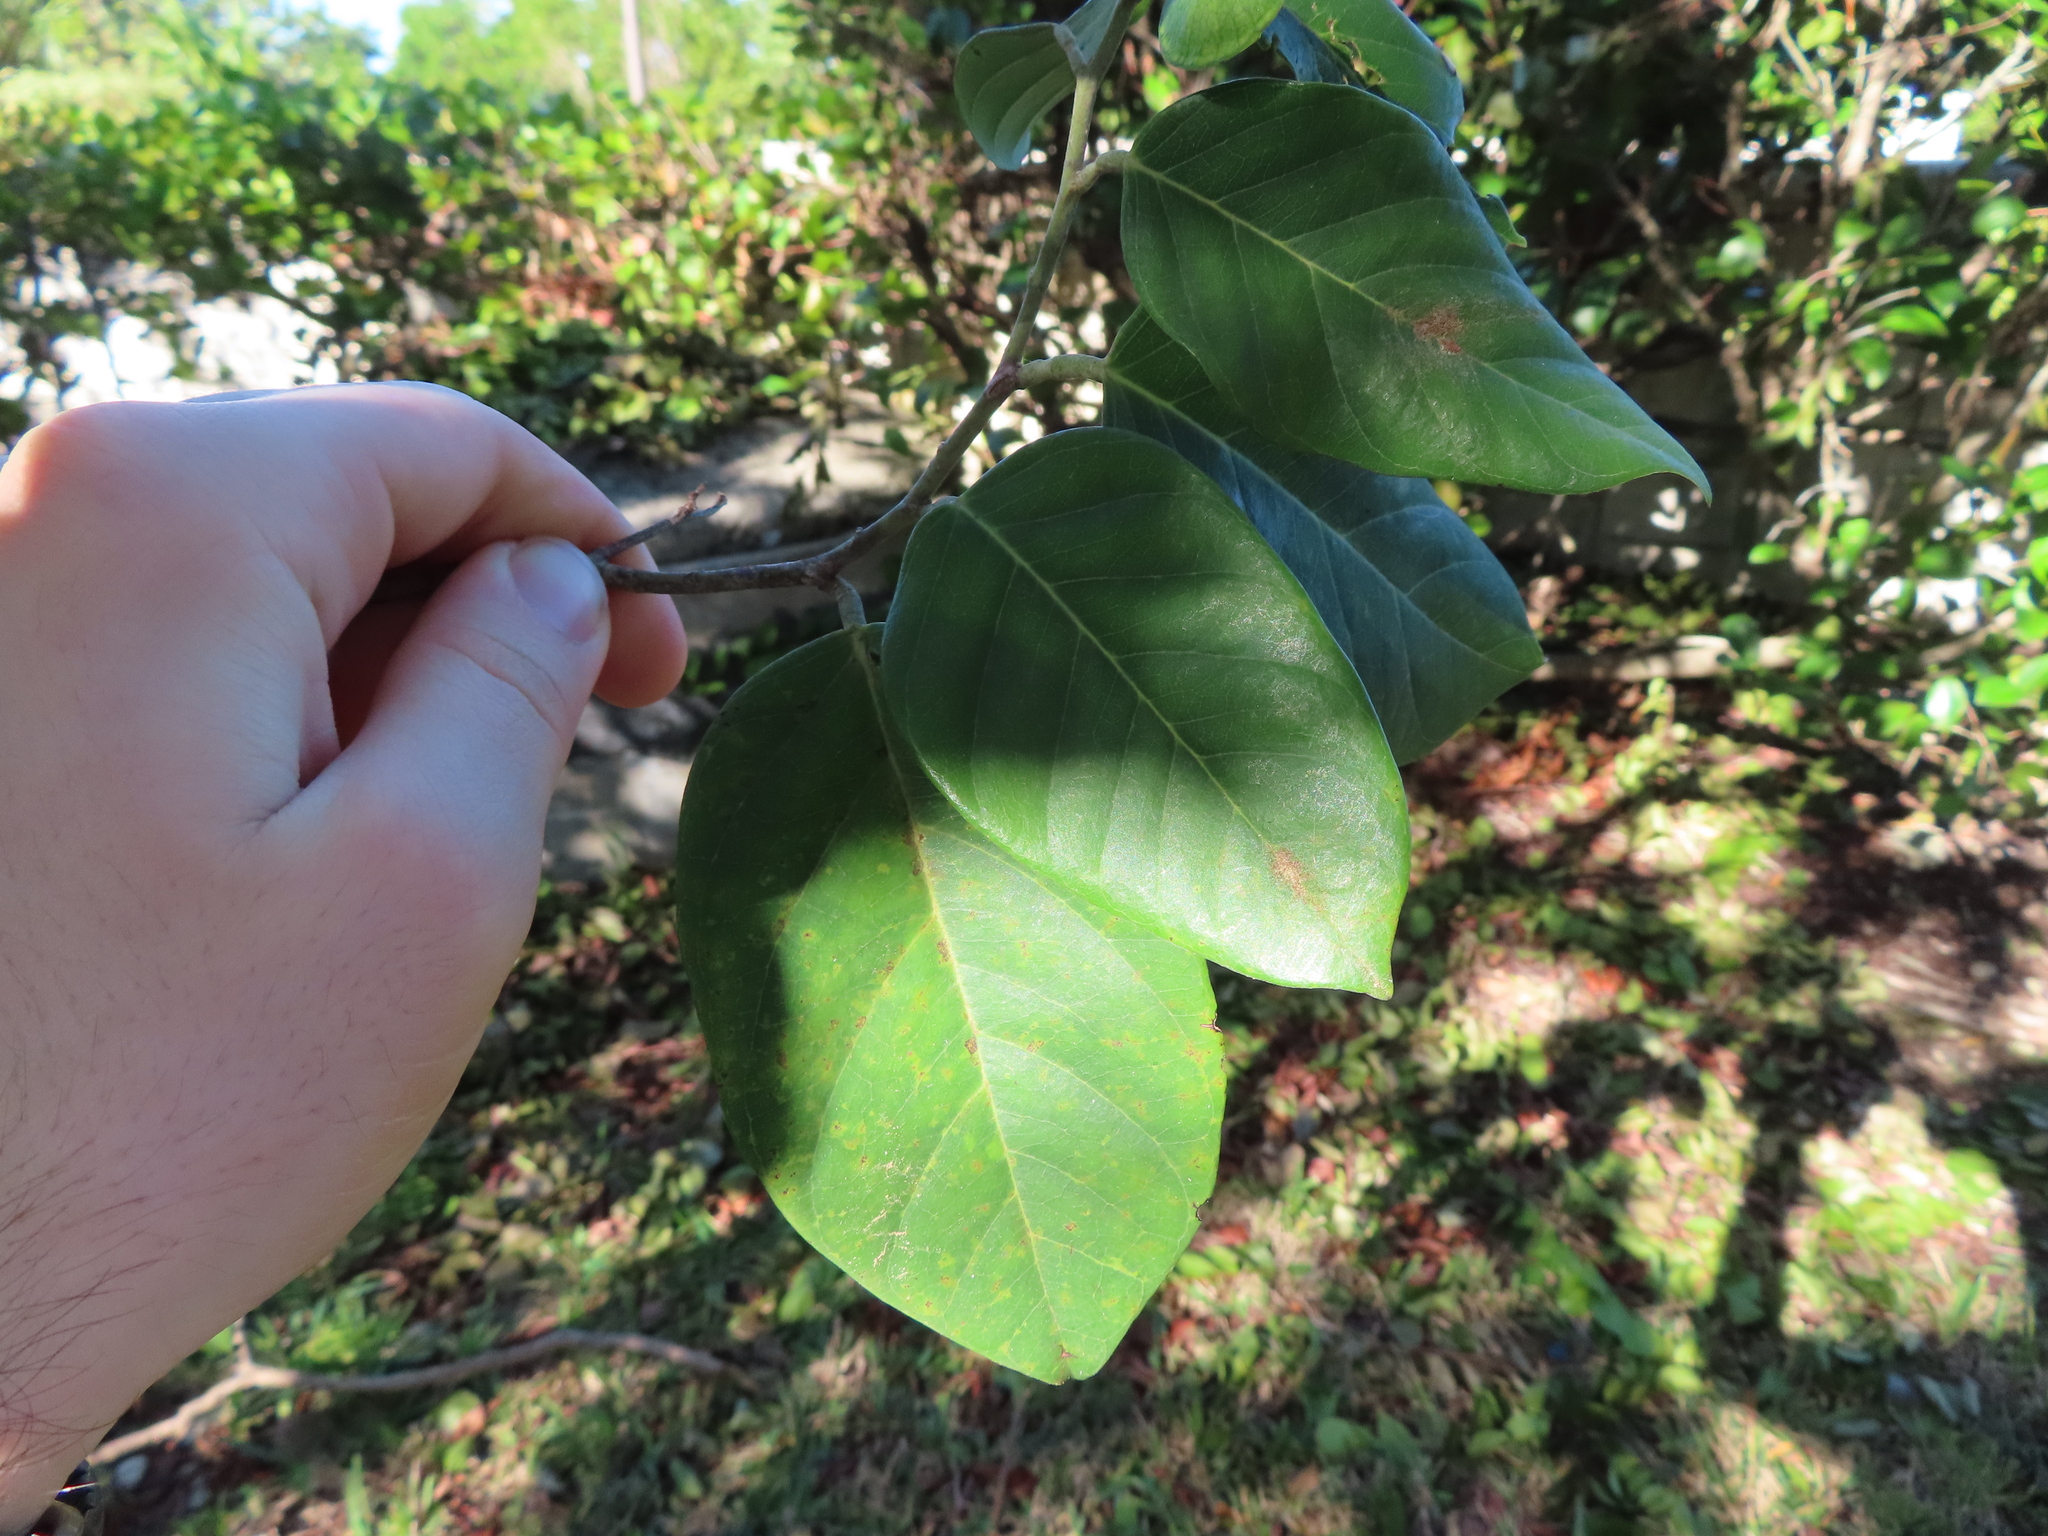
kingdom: Plantae
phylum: Tracheophyta
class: Magnoliopsida
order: Fabales
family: Fabaceae
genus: Dalbergia
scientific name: Dalbergia ecastaphyllum
